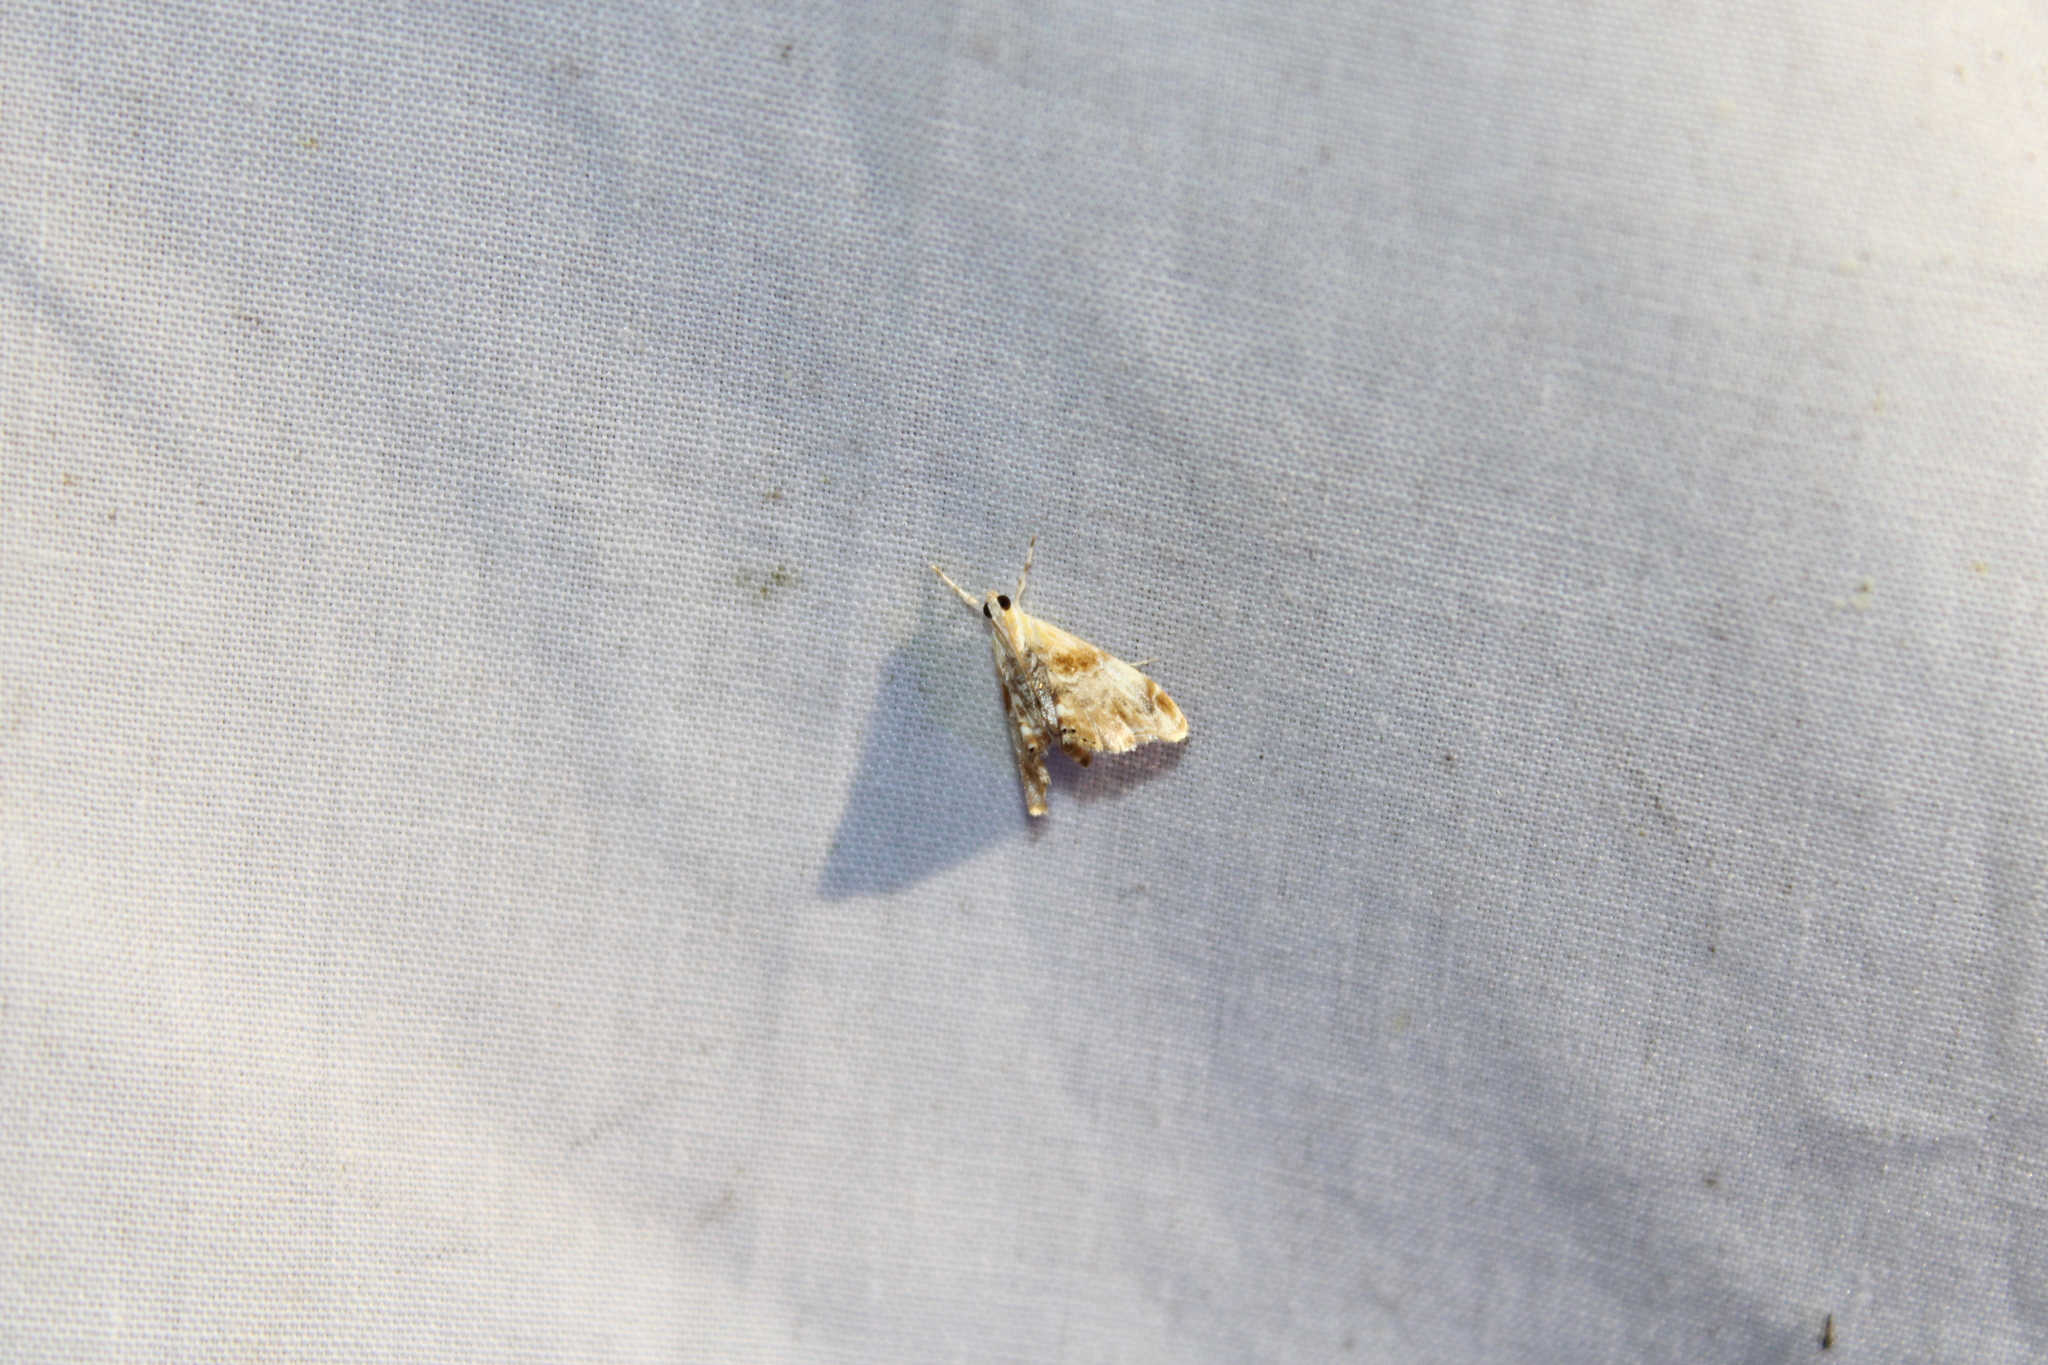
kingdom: Animalia
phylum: Arthropoda
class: Insecta
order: Lepidoptera
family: Crambidae
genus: Dicymolomia
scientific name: Dicymolomia julianalis
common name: Julia's dicymolomia moth
